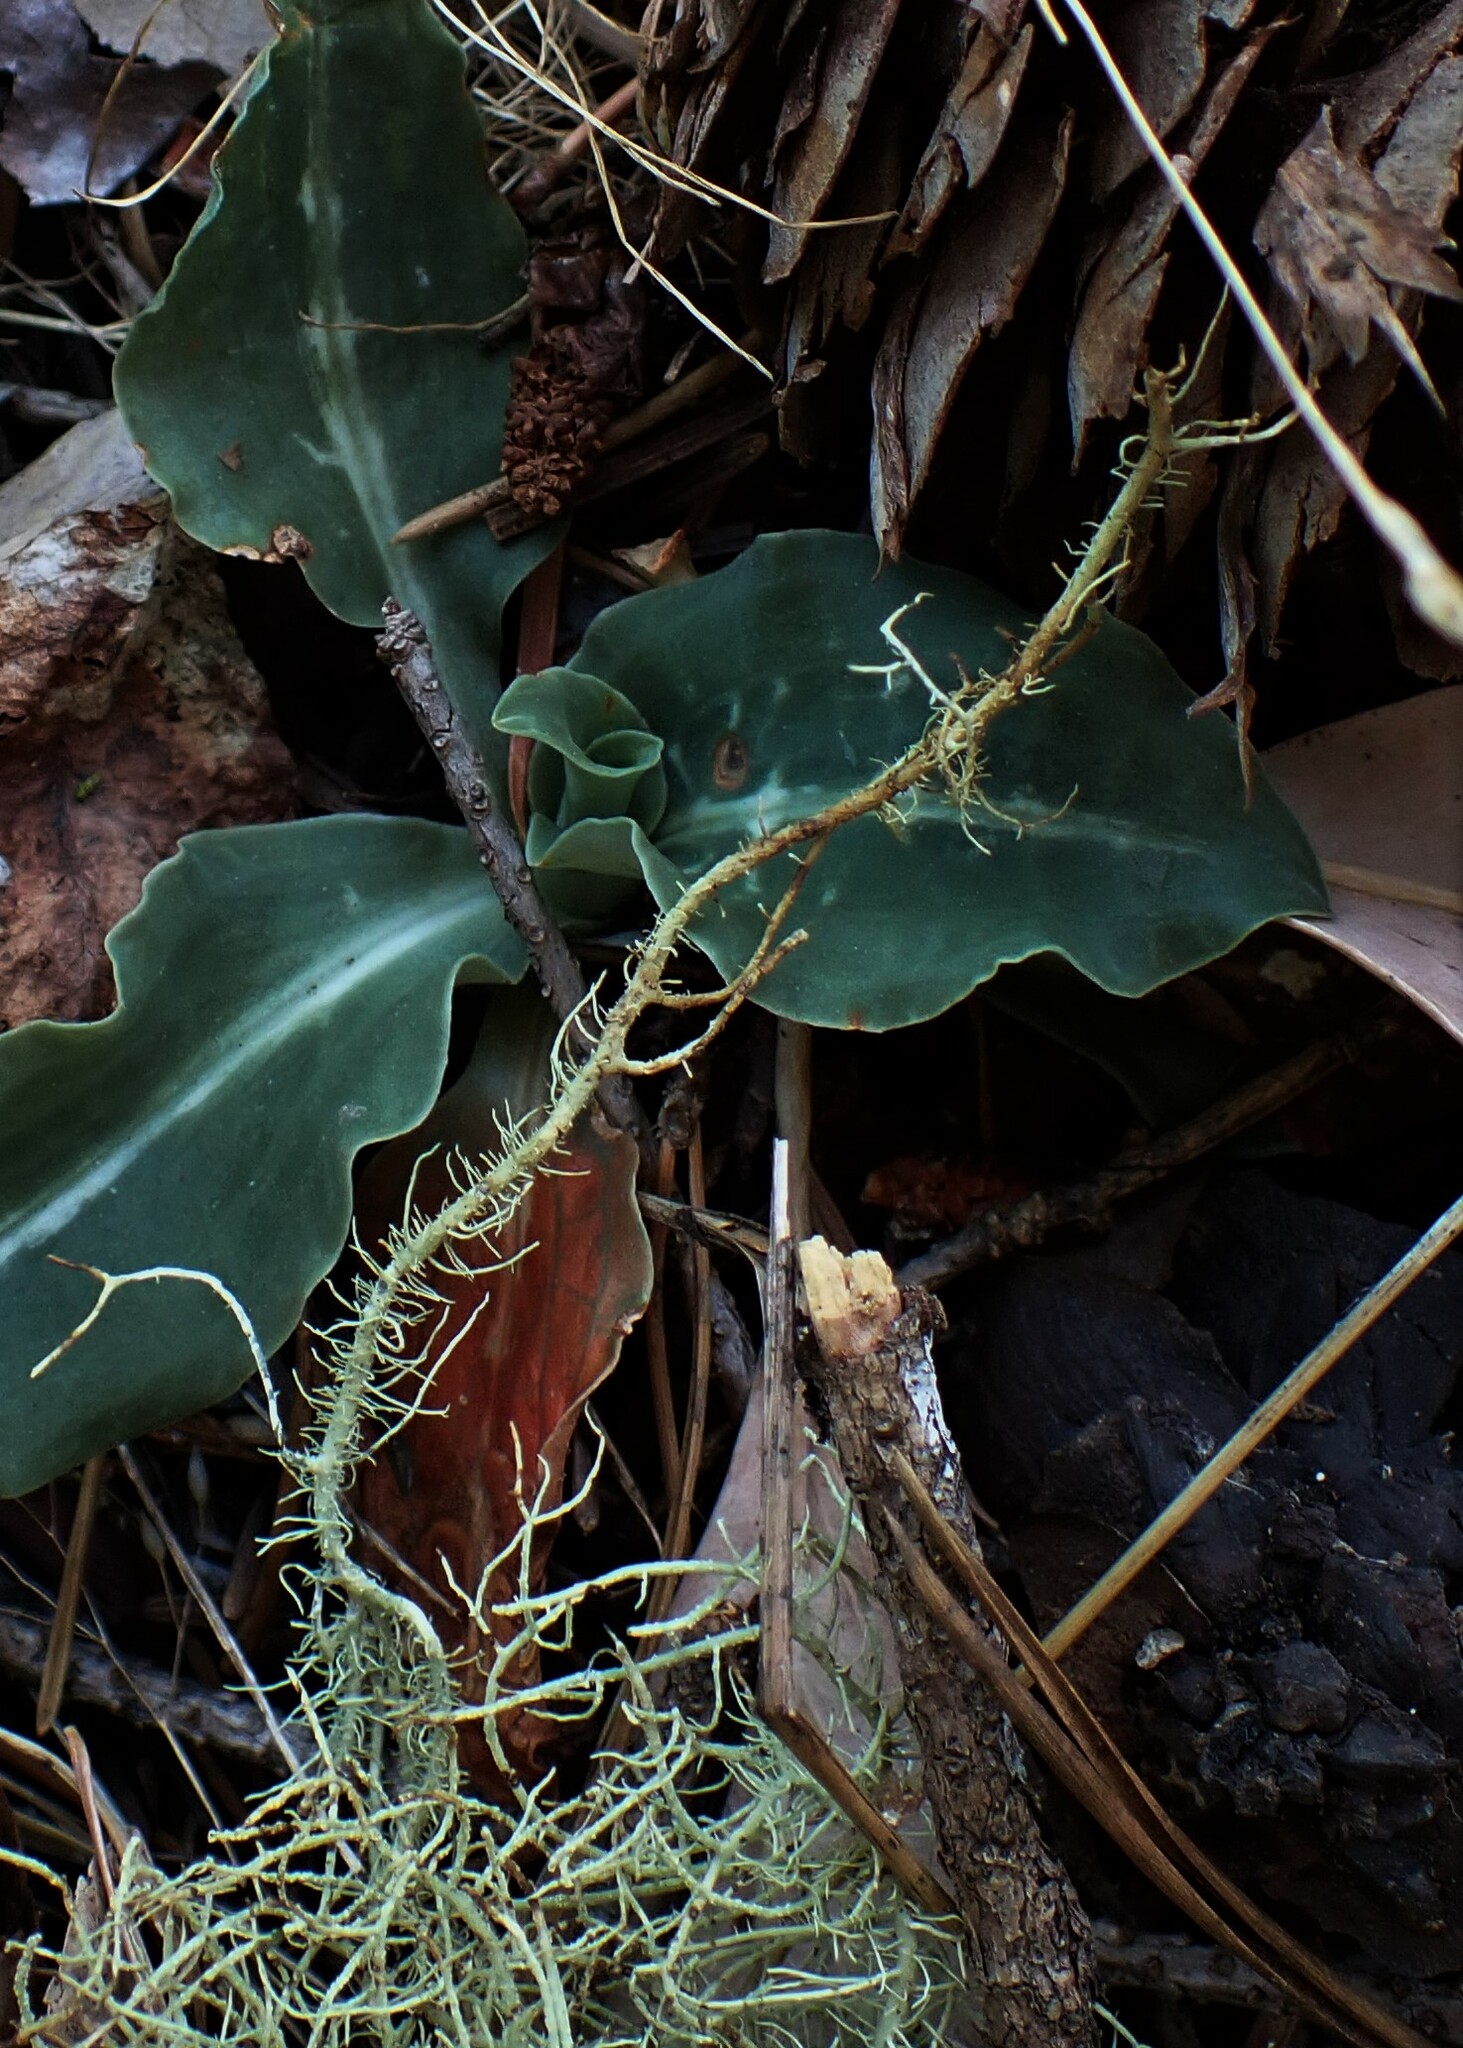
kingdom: Plantae
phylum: Tracheophyta
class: Liliopsida
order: Asparagales
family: Orchidaceae
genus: Goodyera
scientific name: Goodyera oblongifolia
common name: Giant rattlesnake-plantain
